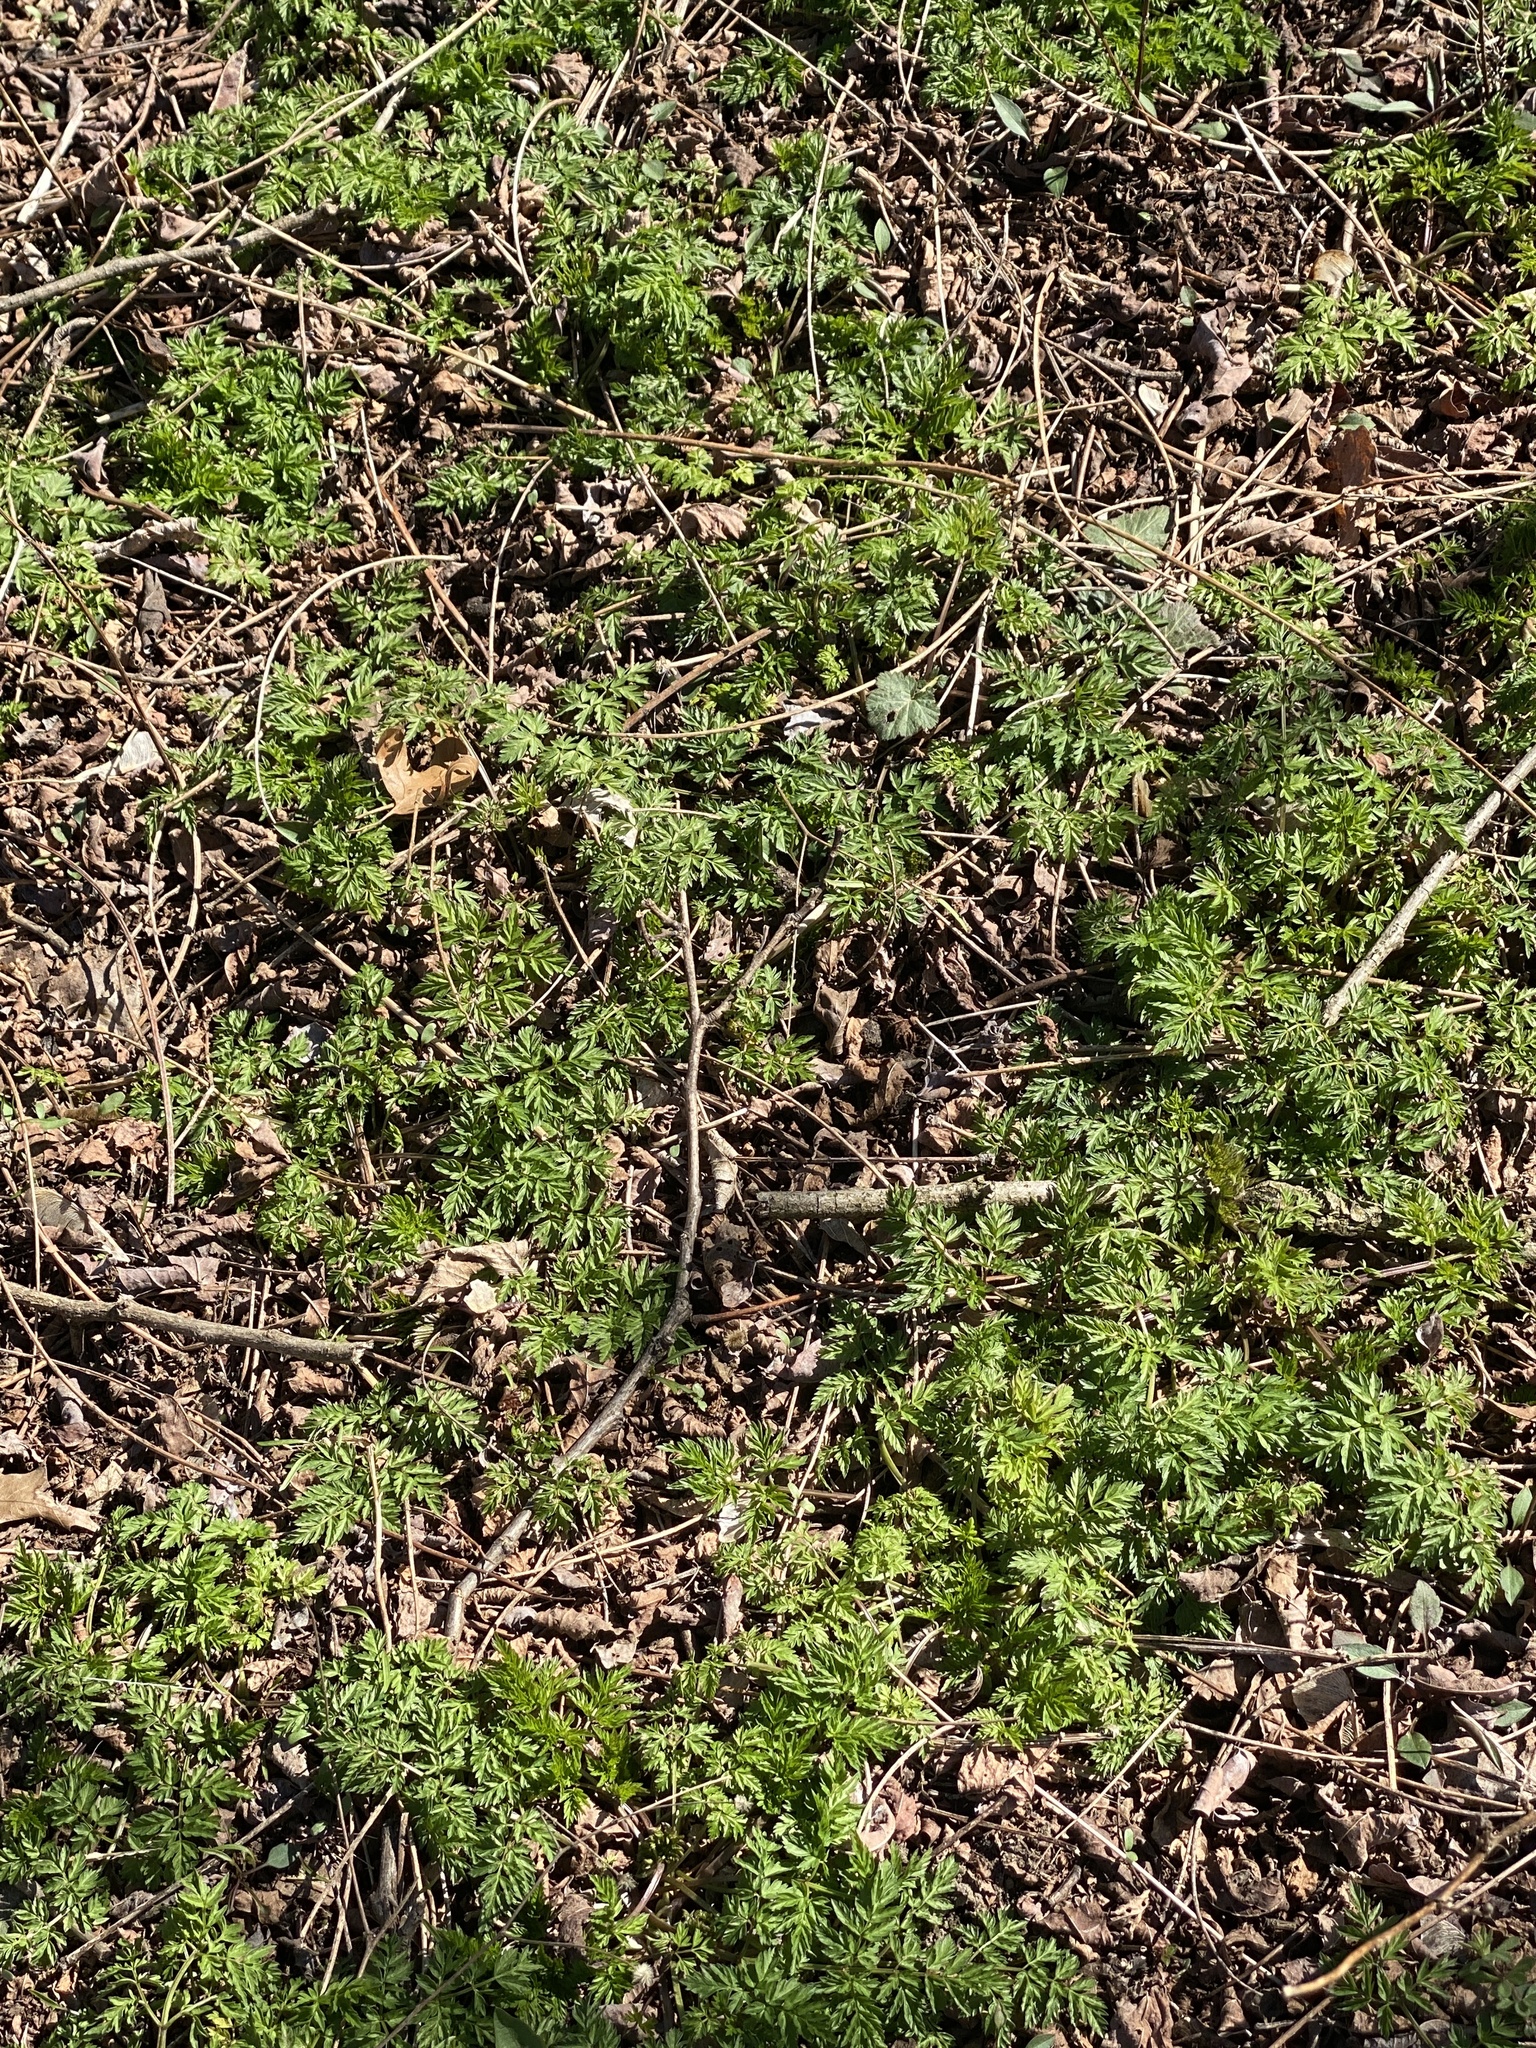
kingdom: Plantae
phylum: Tracheophyta
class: Magnoliopsida
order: Apiales
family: Apiaceae
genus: Anthriscus
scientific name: Anthriscus sylvestris
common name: Cow parsley
